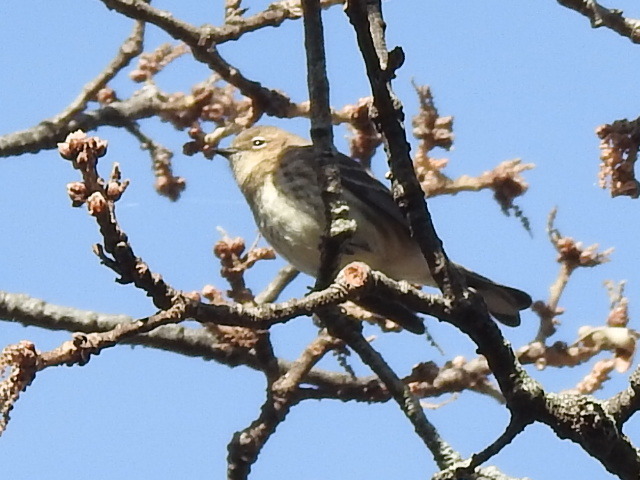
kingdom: Animalia
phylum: Chordata
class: Aves
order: Passeriformes
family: Parulidae
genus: Setophaga
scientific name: Setophaga coronata
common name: Myrtle warbler
